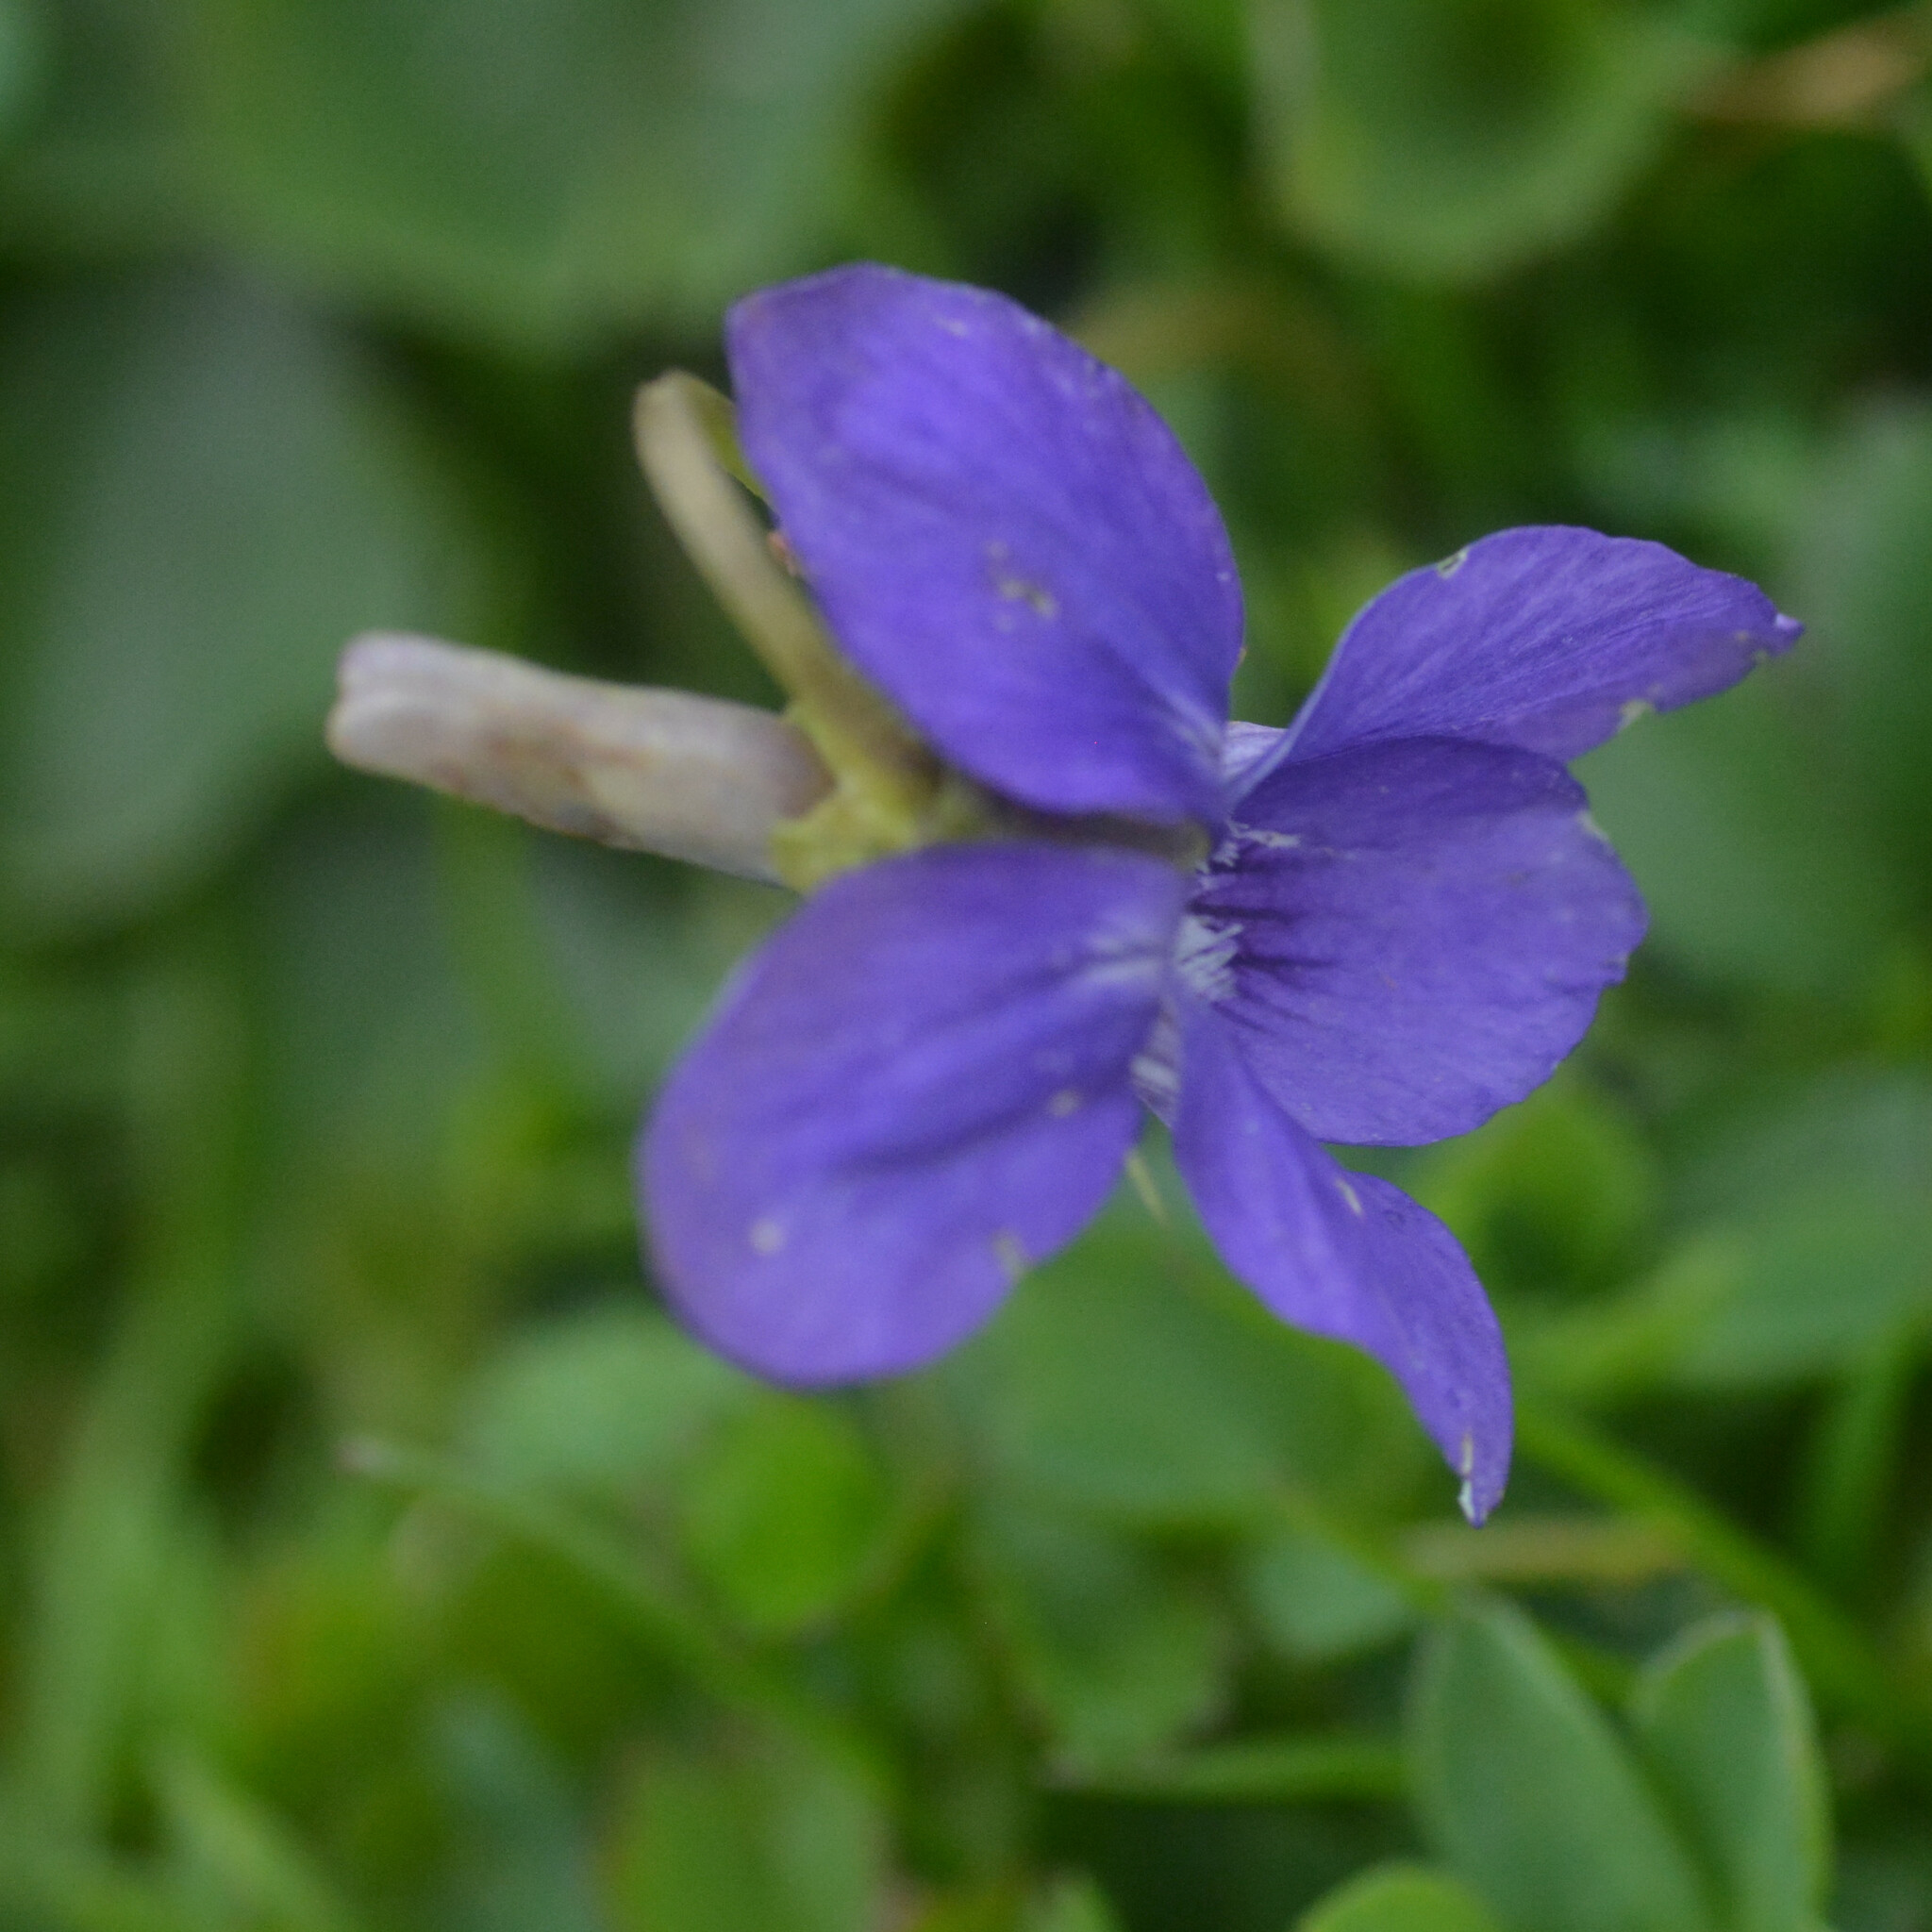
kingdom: Plantae
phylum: Tracheophyta
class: Magnoliopsida
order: Malpighiales
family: Violaceae
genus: Viola
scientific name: Viola riviniana
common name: Common dog-violet
